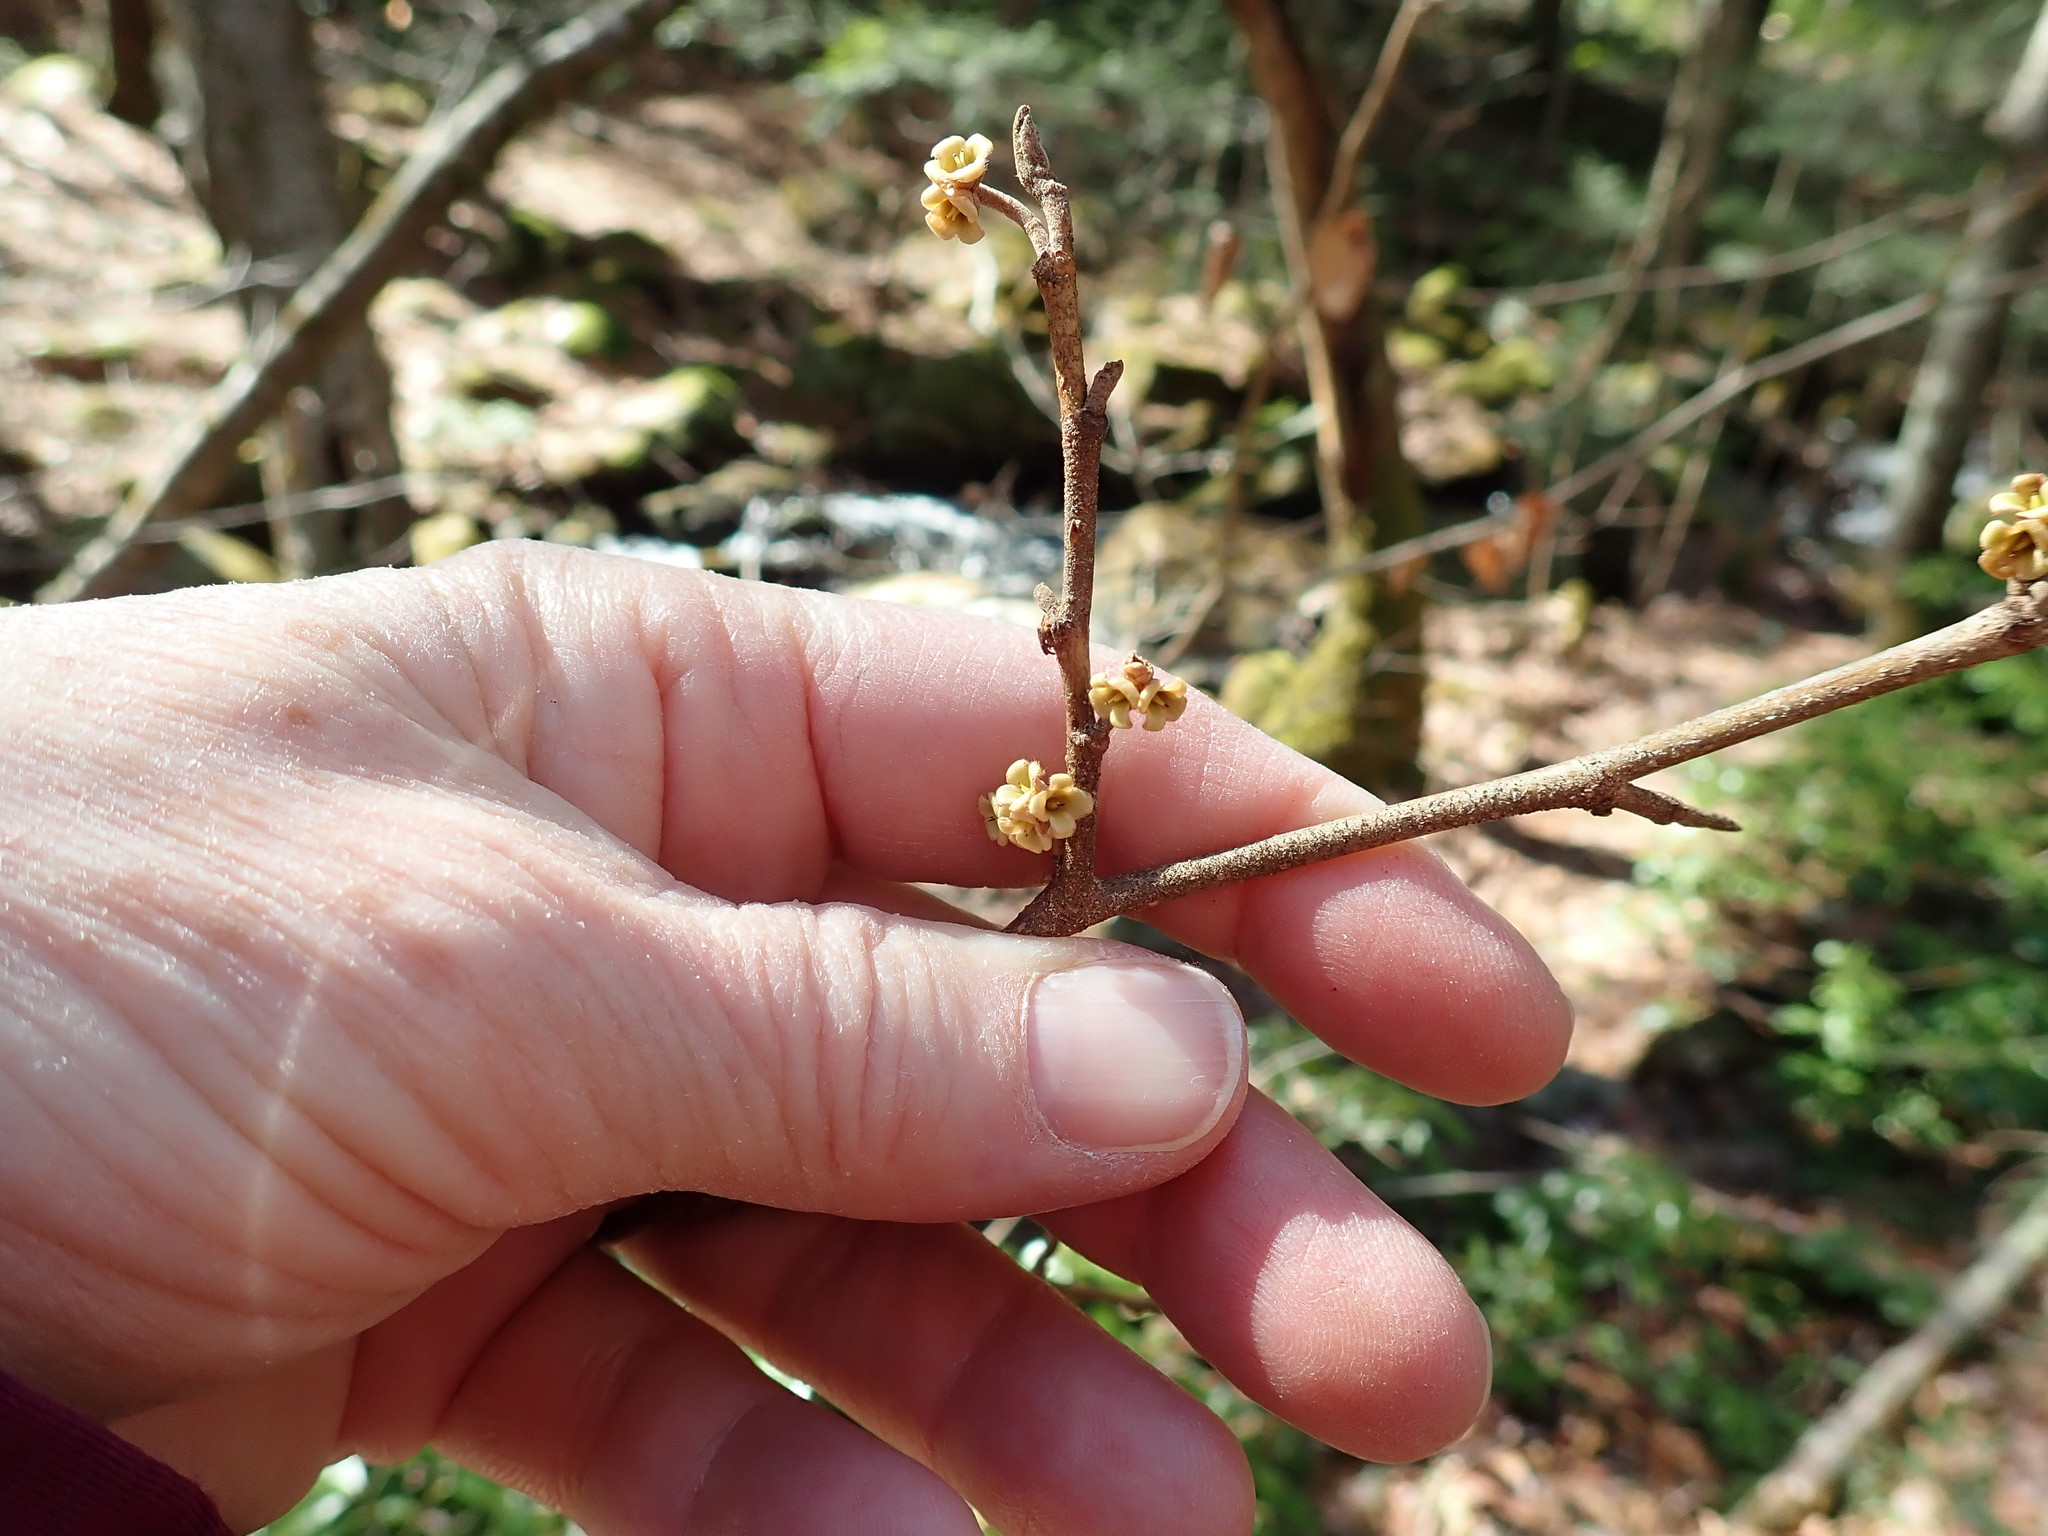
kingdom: Plantae
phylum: Tracheophyta
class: Magnoliopsida
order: Saxifragales
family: Hamamelidaceae
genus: Hamamelis
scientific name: Hamamelis virginiana
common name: Witch-hazel
